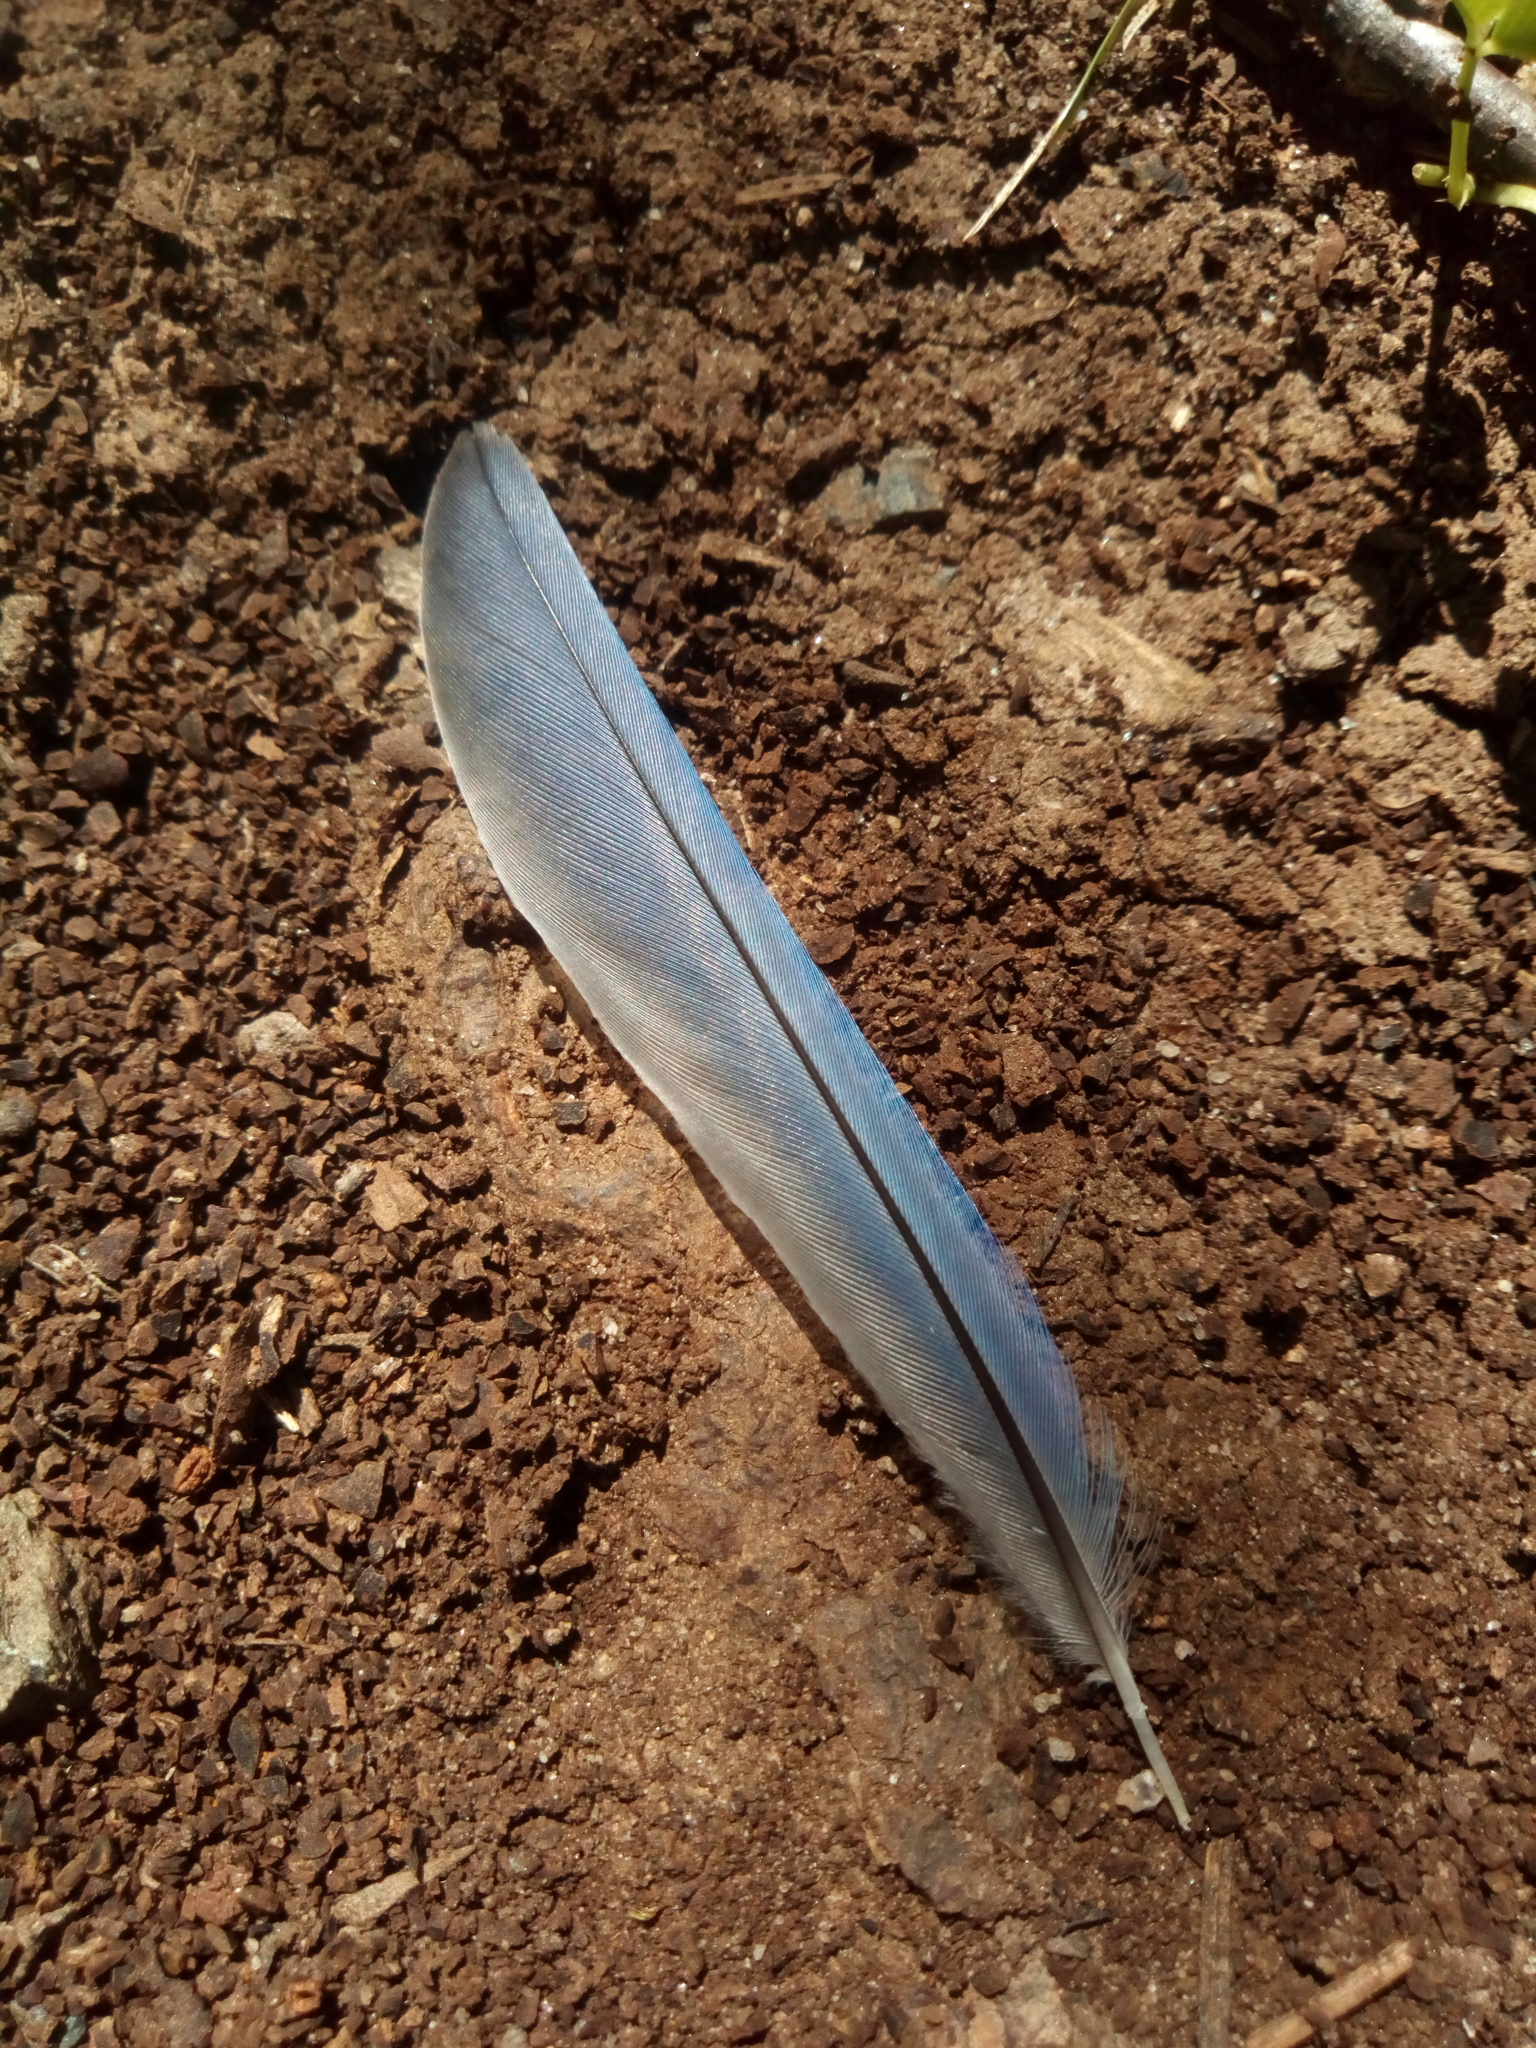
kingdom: Animalia
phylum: Chordata
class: Aves
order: Passeriformes
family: Turdidae
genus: Sialia
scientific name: Sialia sialis
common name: Eastern bluebird
